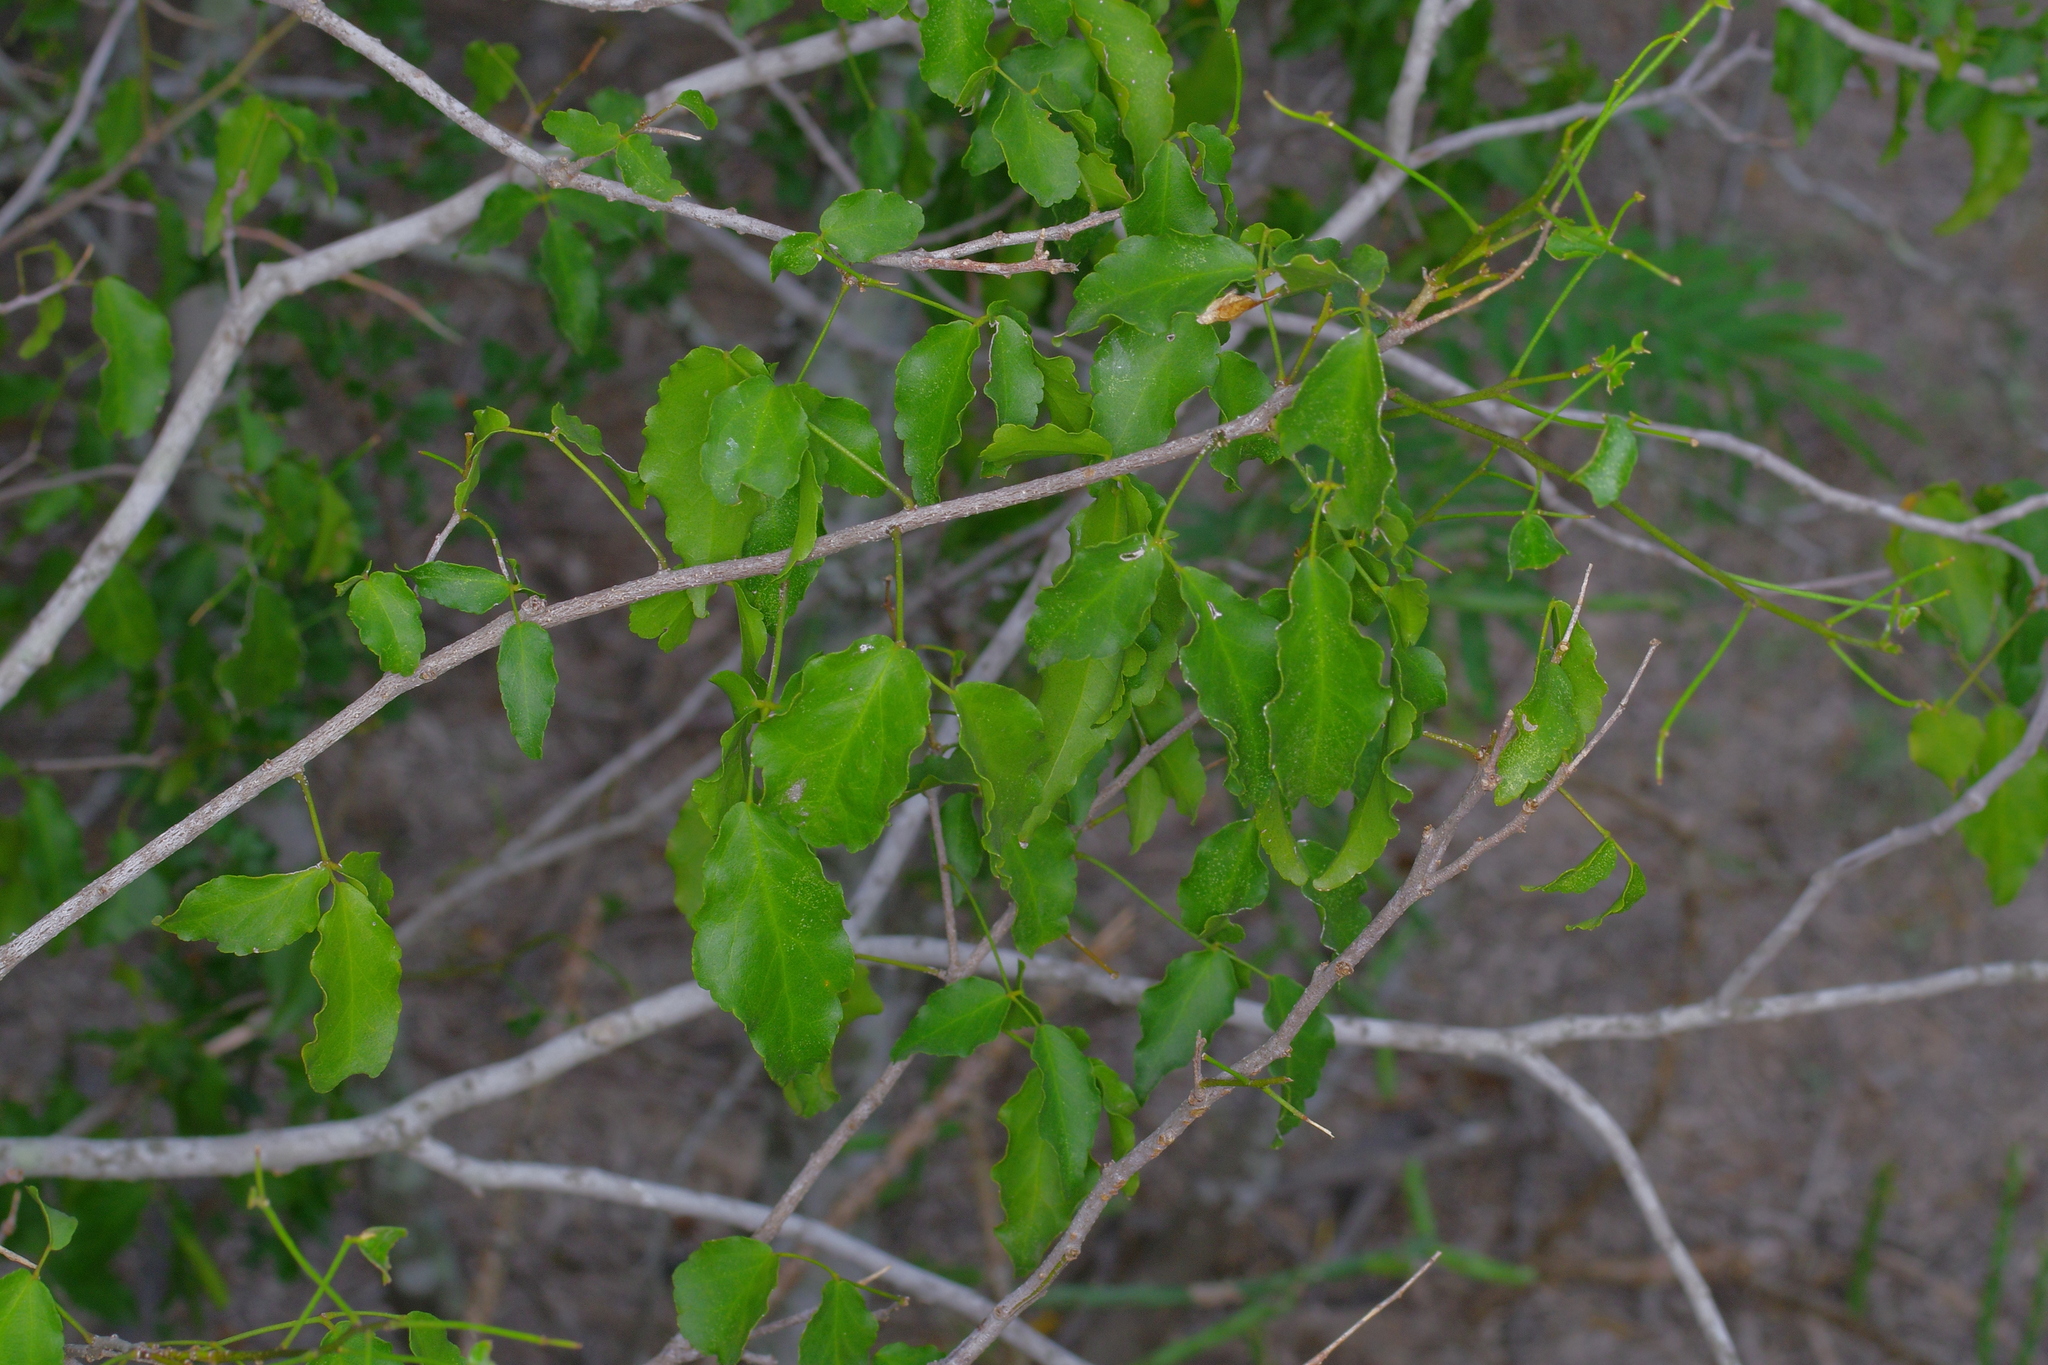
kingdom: Plantae
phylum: Tracheophyta
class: Magnoliopsida
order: Sapindales
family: Rutaceae
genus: Amyris
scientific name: Amyris texana
